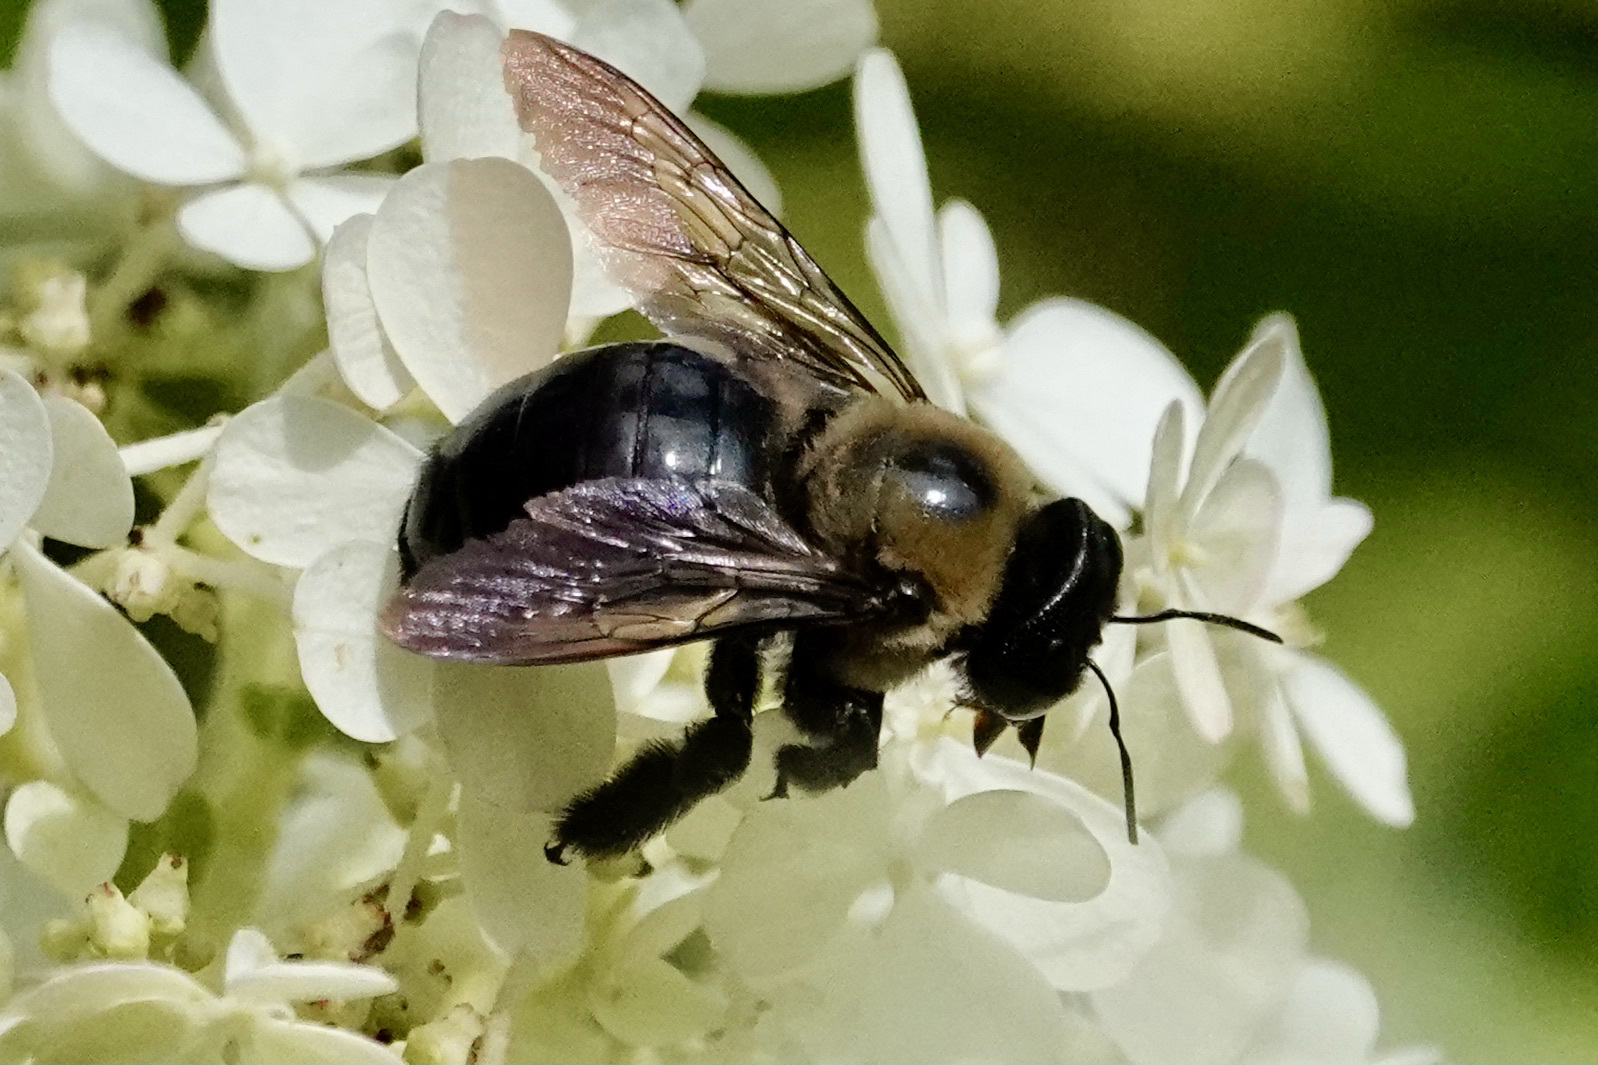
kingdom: Animalia
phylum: Arthropoda
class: Insecta
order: Hymenoptera
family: Apidae
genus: Xylocopa
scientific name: Xylocopa virginica
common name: Carpenter bee
